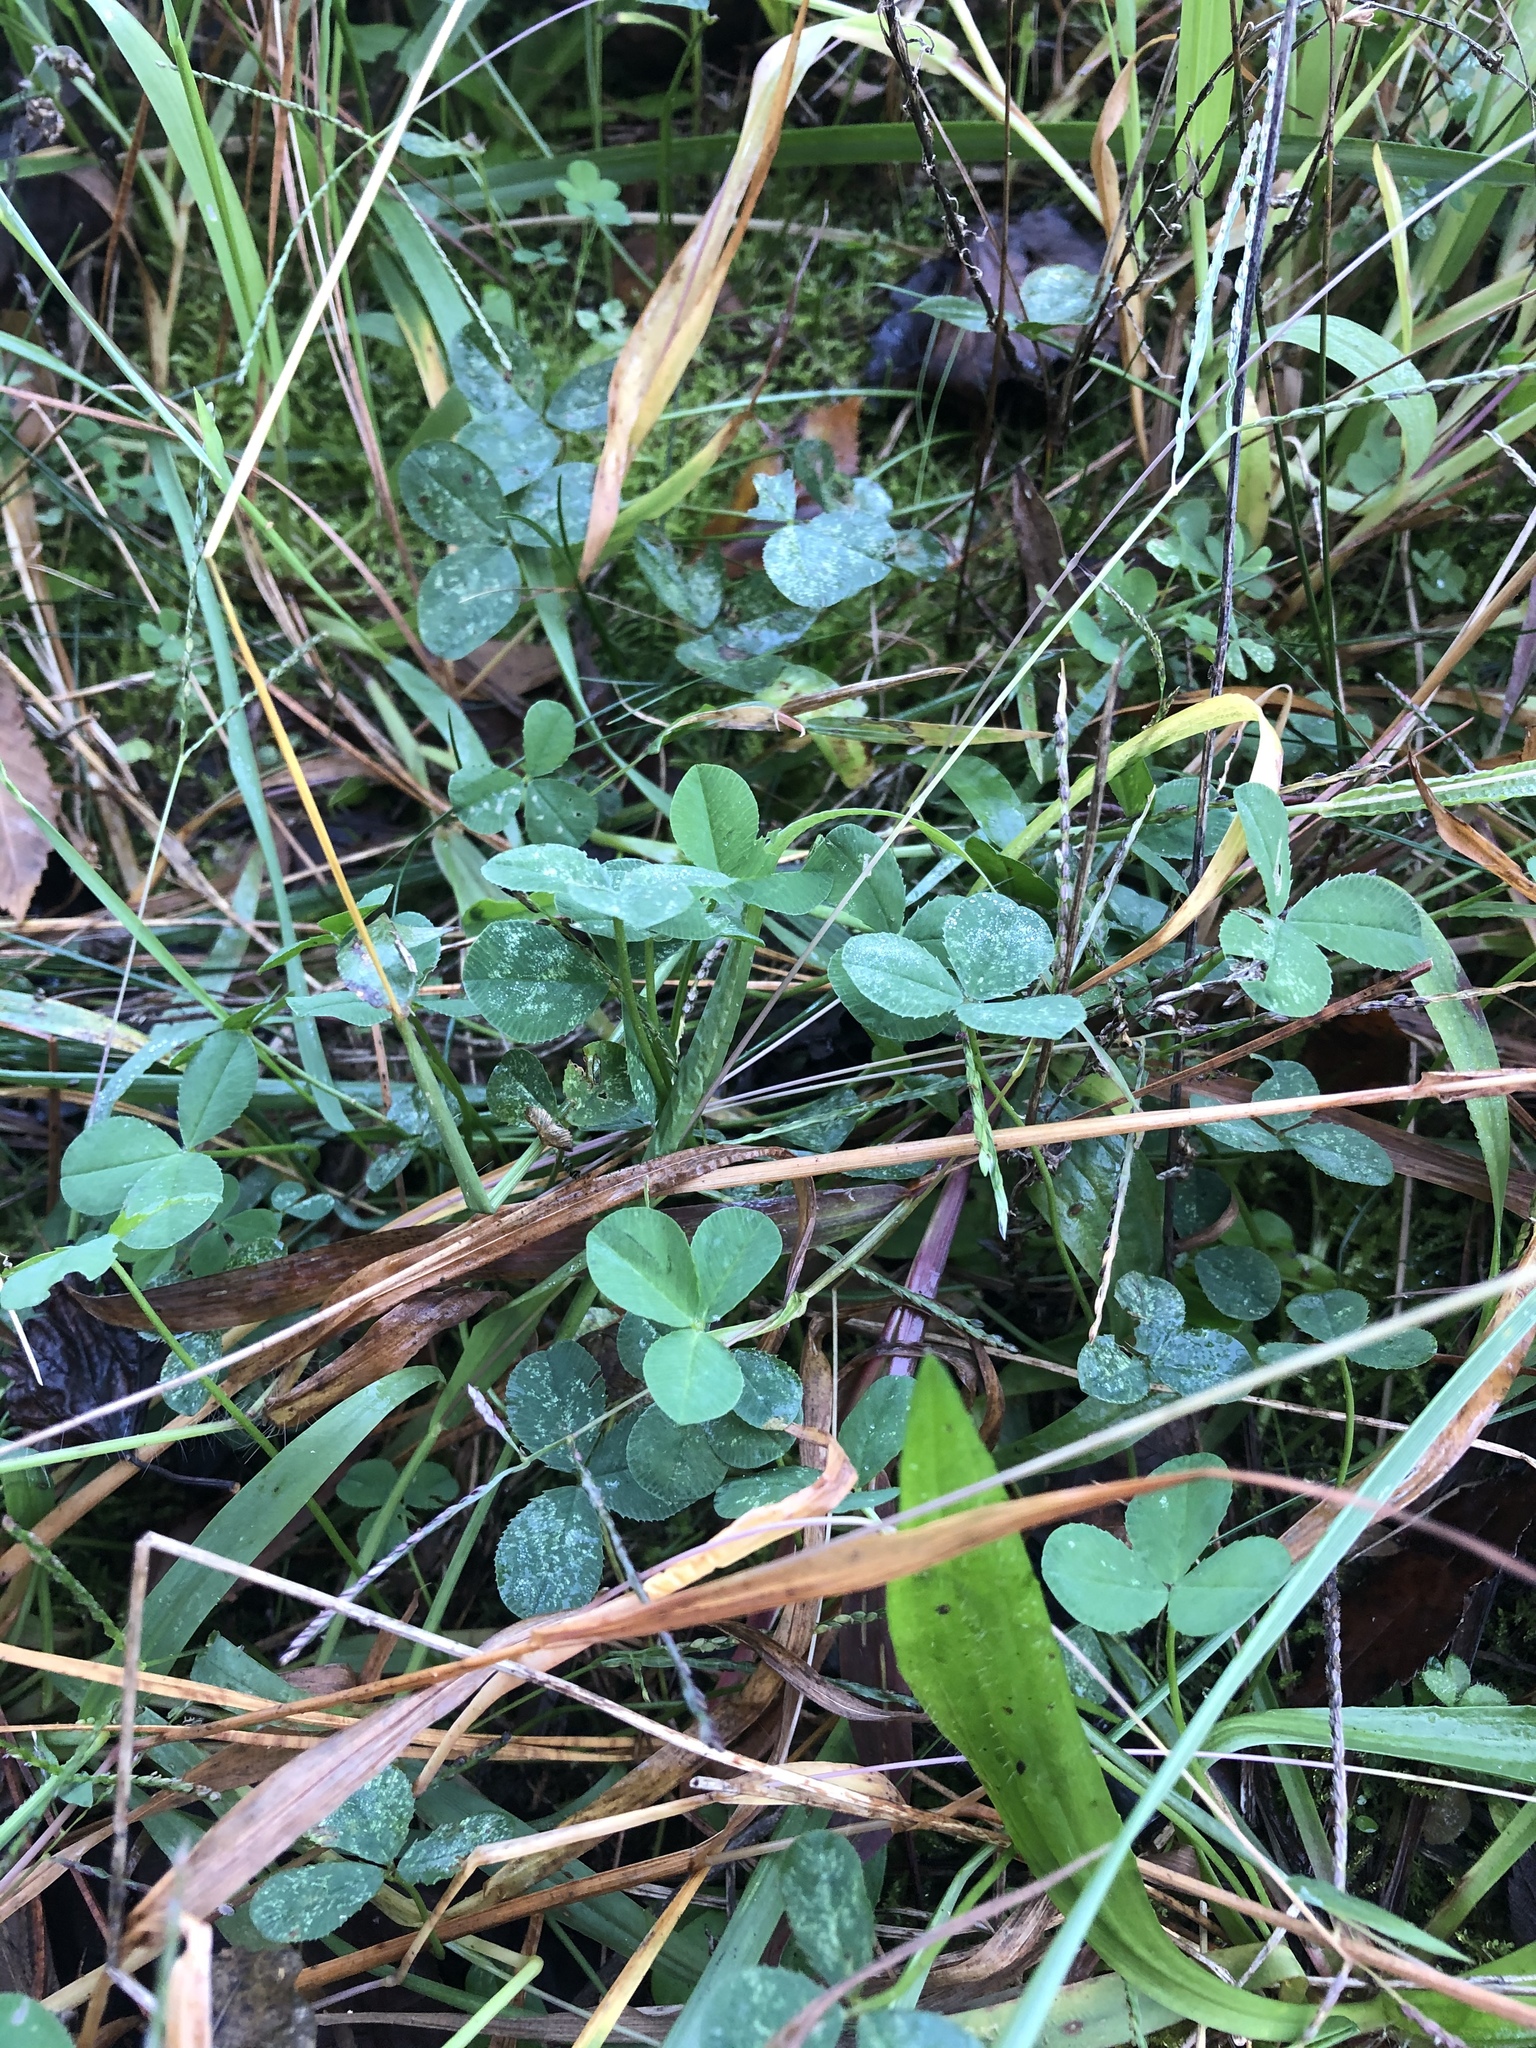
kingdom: Plantae
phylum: Tracheophyta
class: Magnoliopsida
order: Fabales
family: Fabaceae
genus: Trifolium
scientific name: Trifolium repens
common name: White clover
